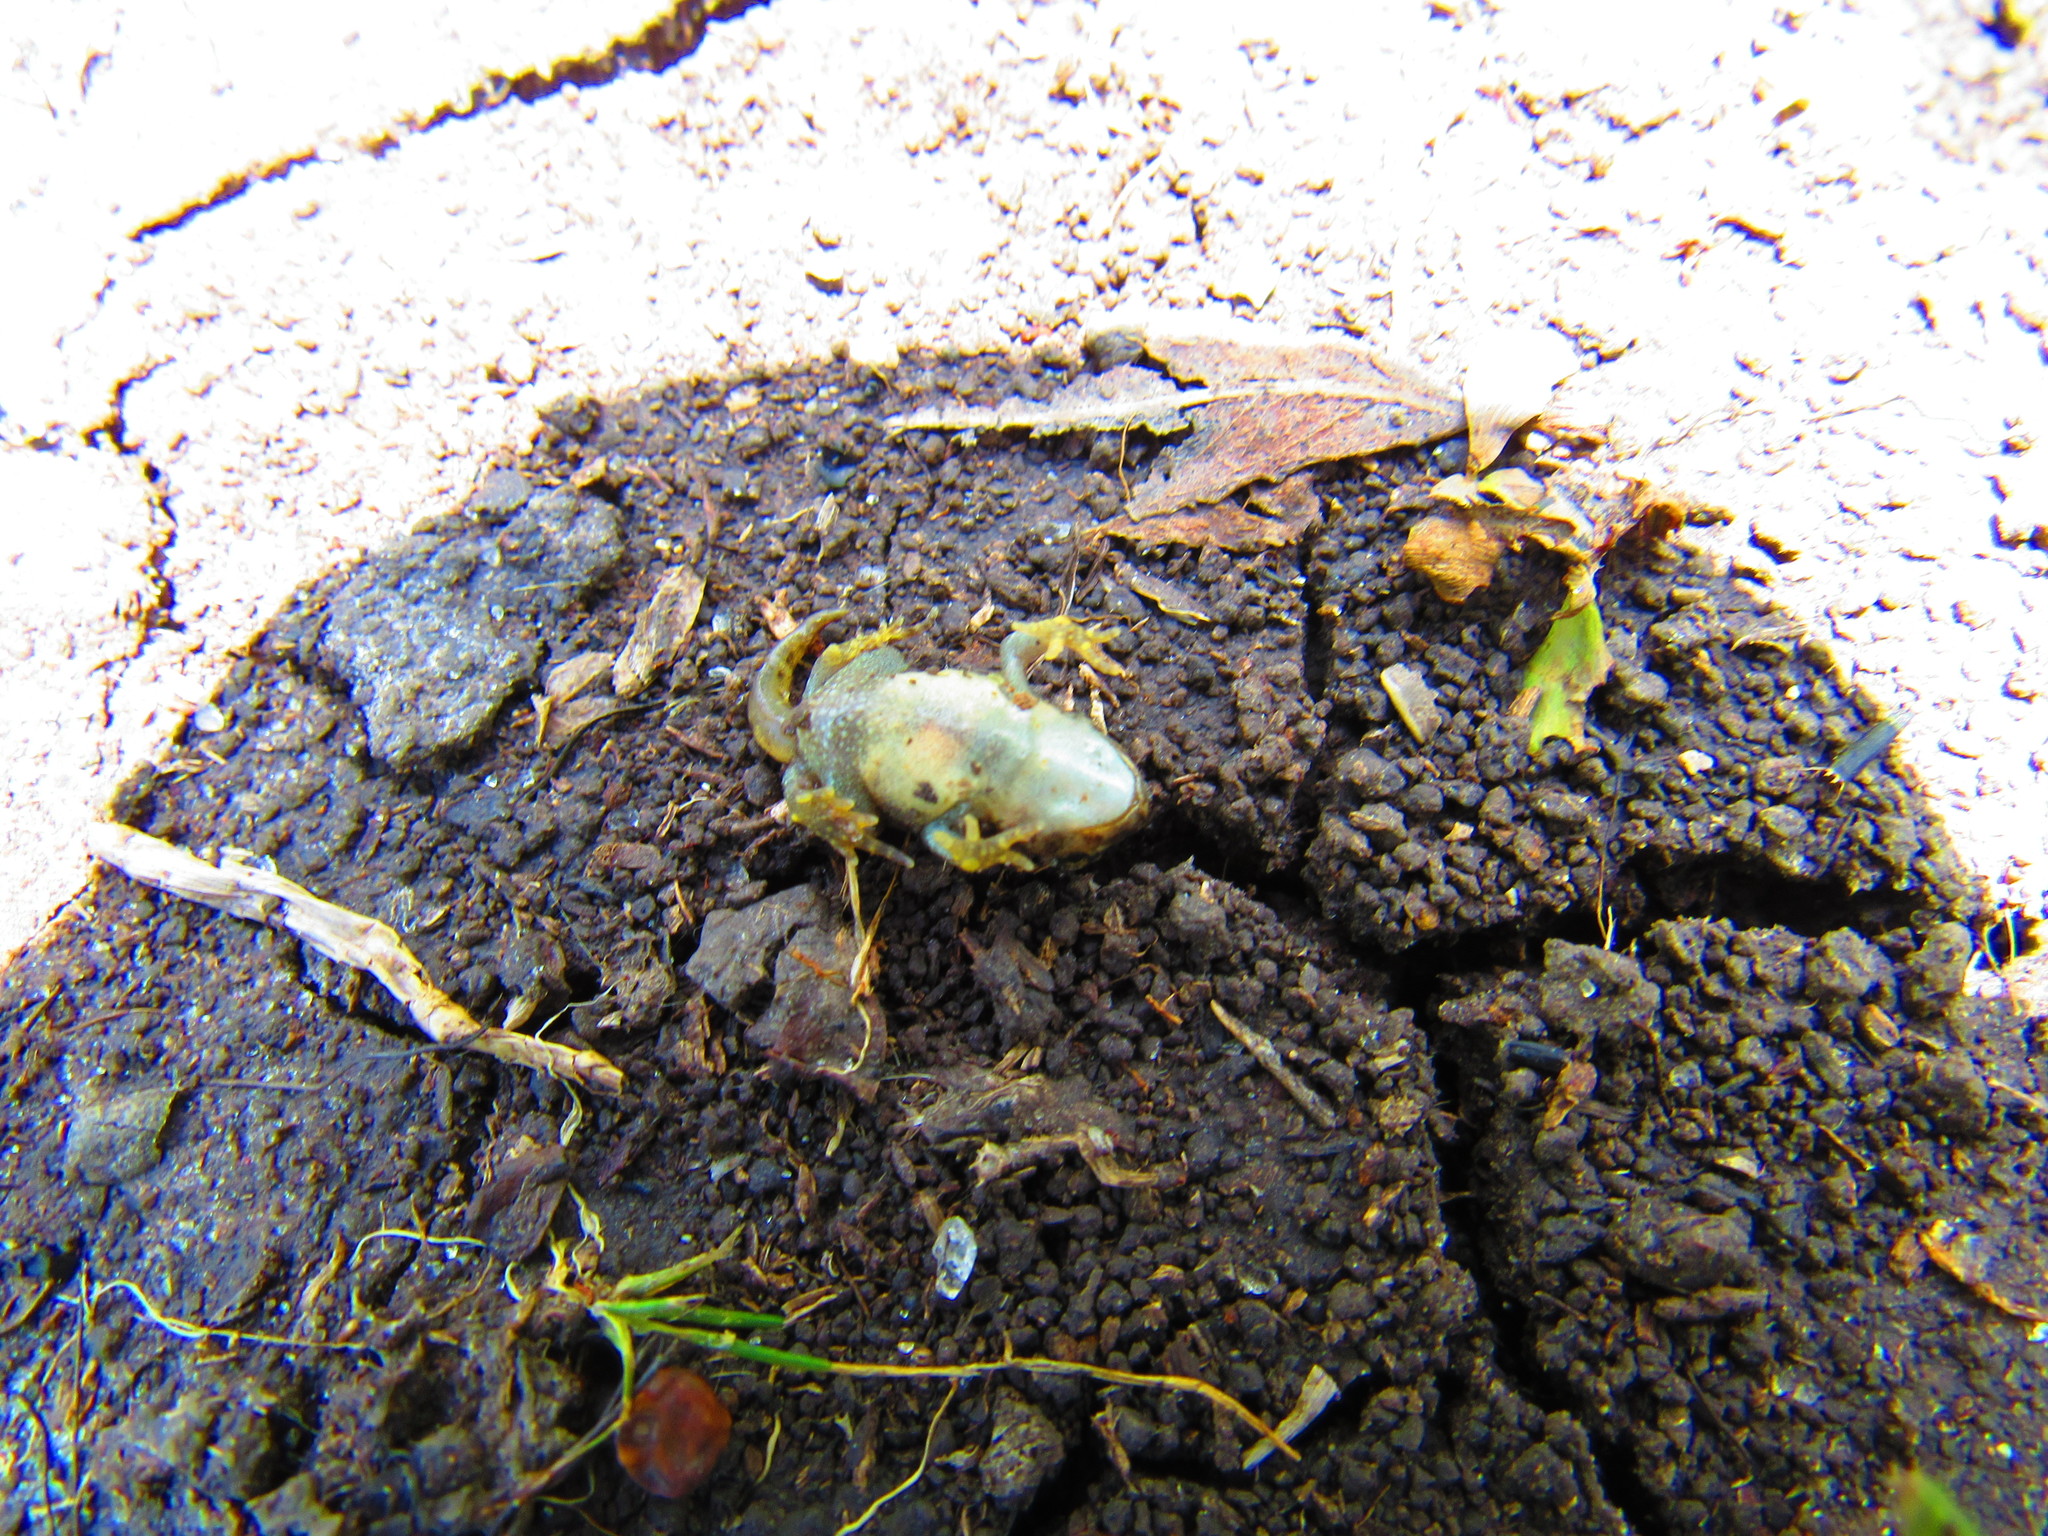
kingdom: Animalia
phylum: Chordata
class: Amphibia
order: Anura
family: Bufonidae
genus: Anaxyrus
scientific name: Anaxyrus compactilis
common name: Plateau toad
